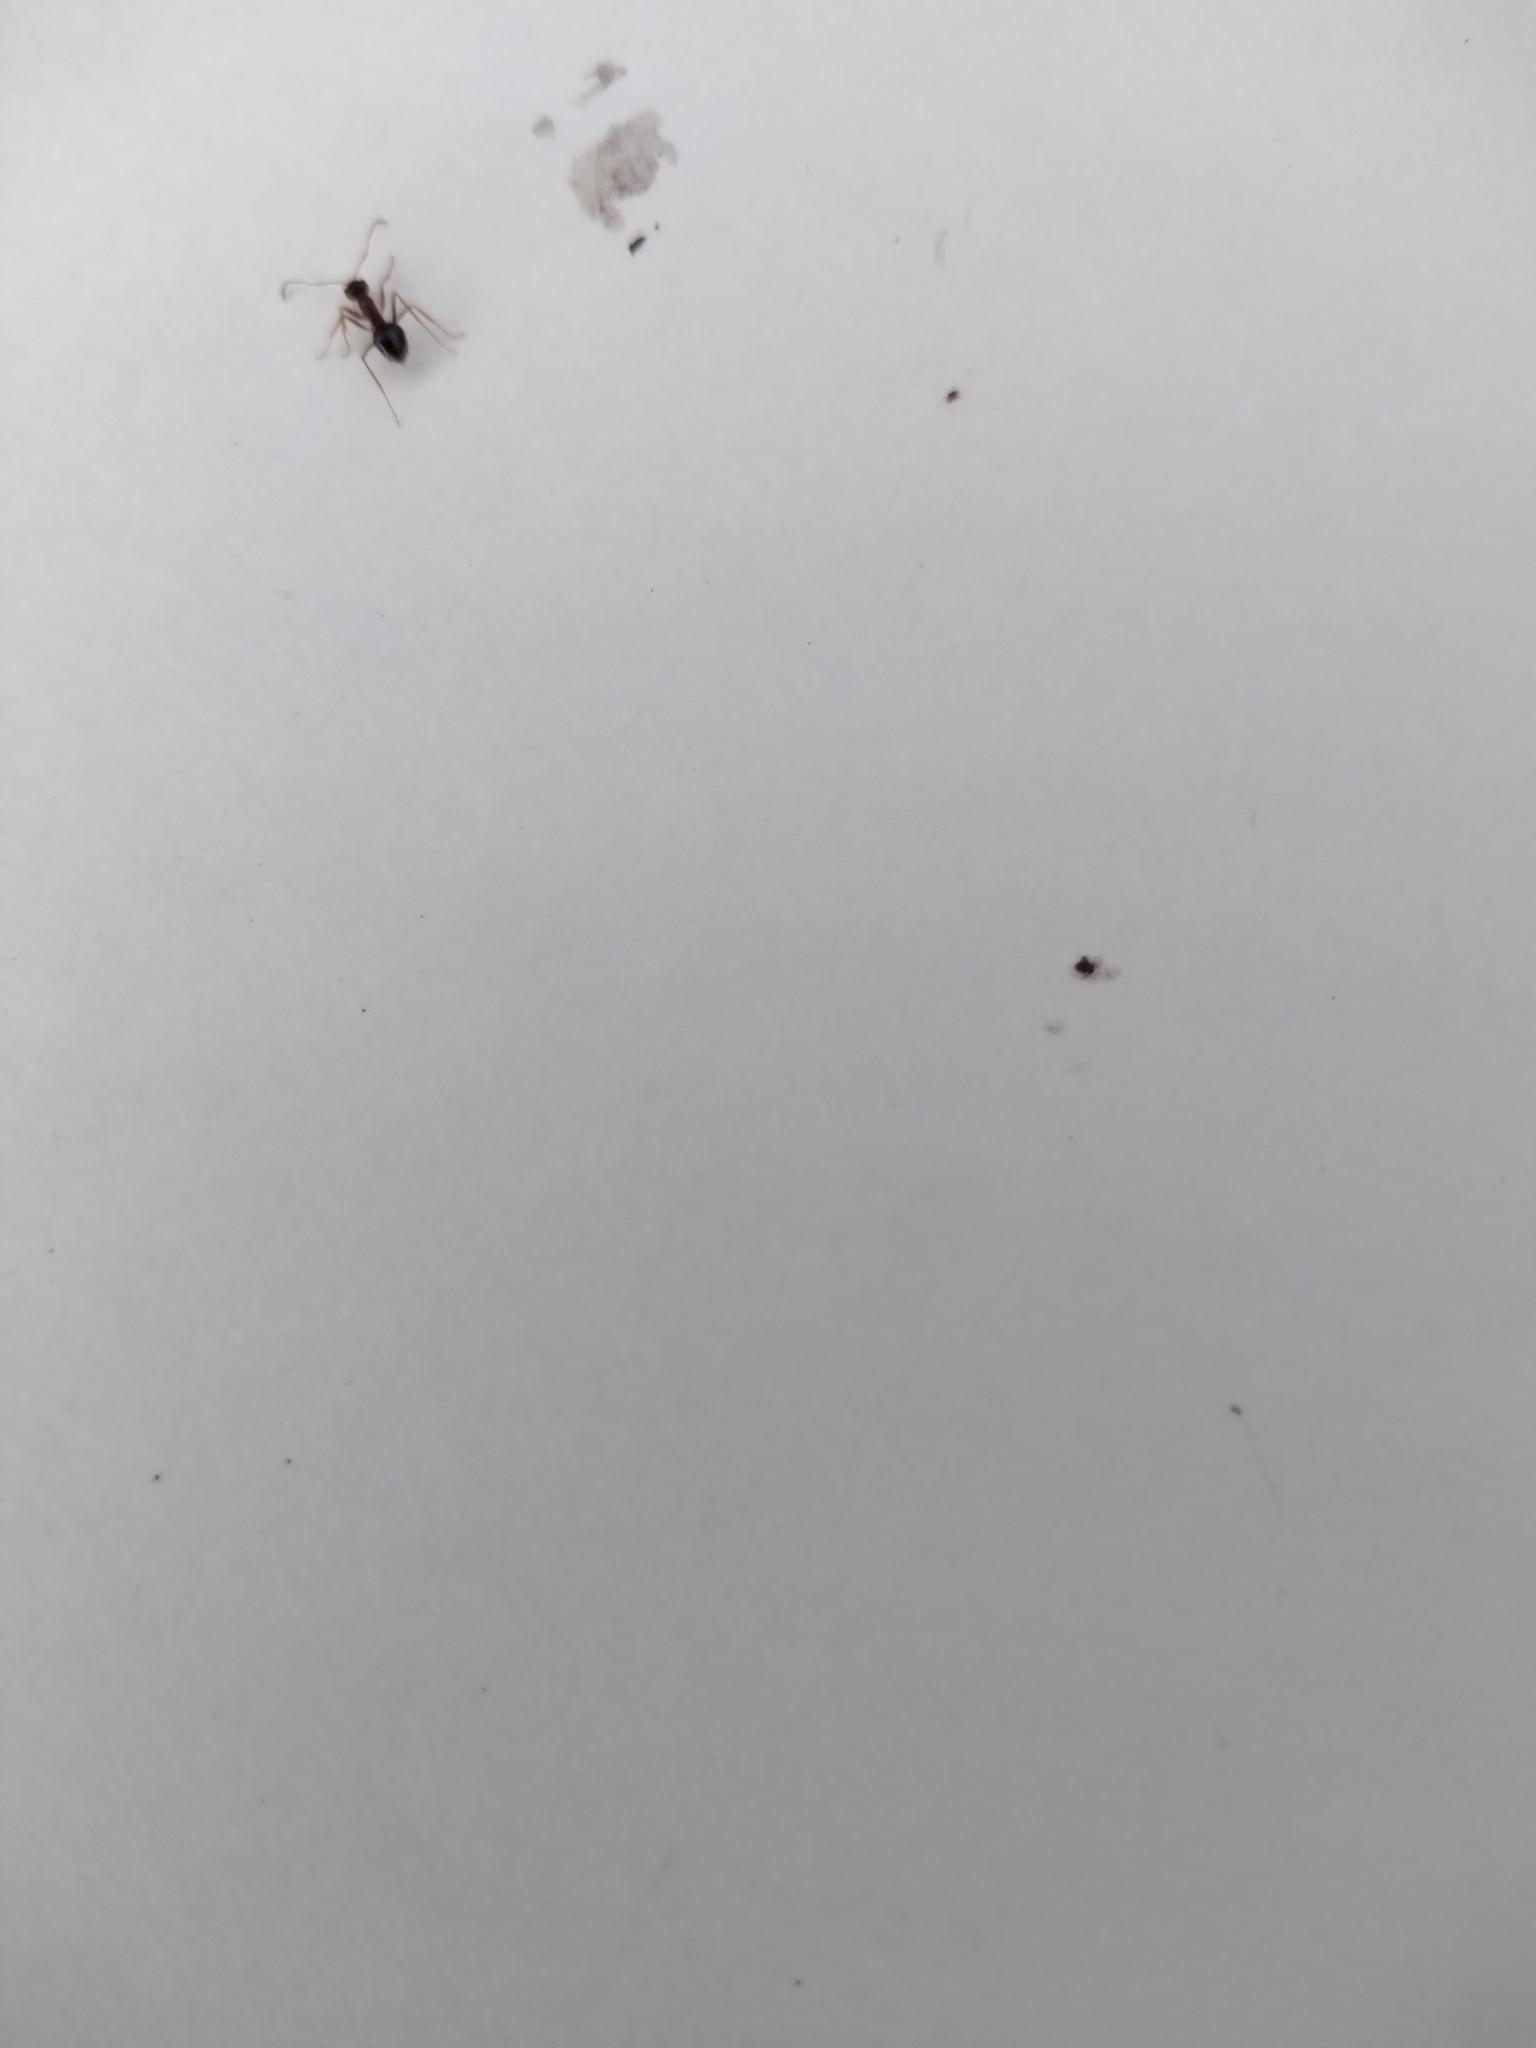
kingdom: Animalia
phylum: Arthropoda
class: Insecta
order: Hymenoptera
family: Formicidae
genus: Prenolepis
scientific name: Prenolepis imparis
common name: Small honey ant
